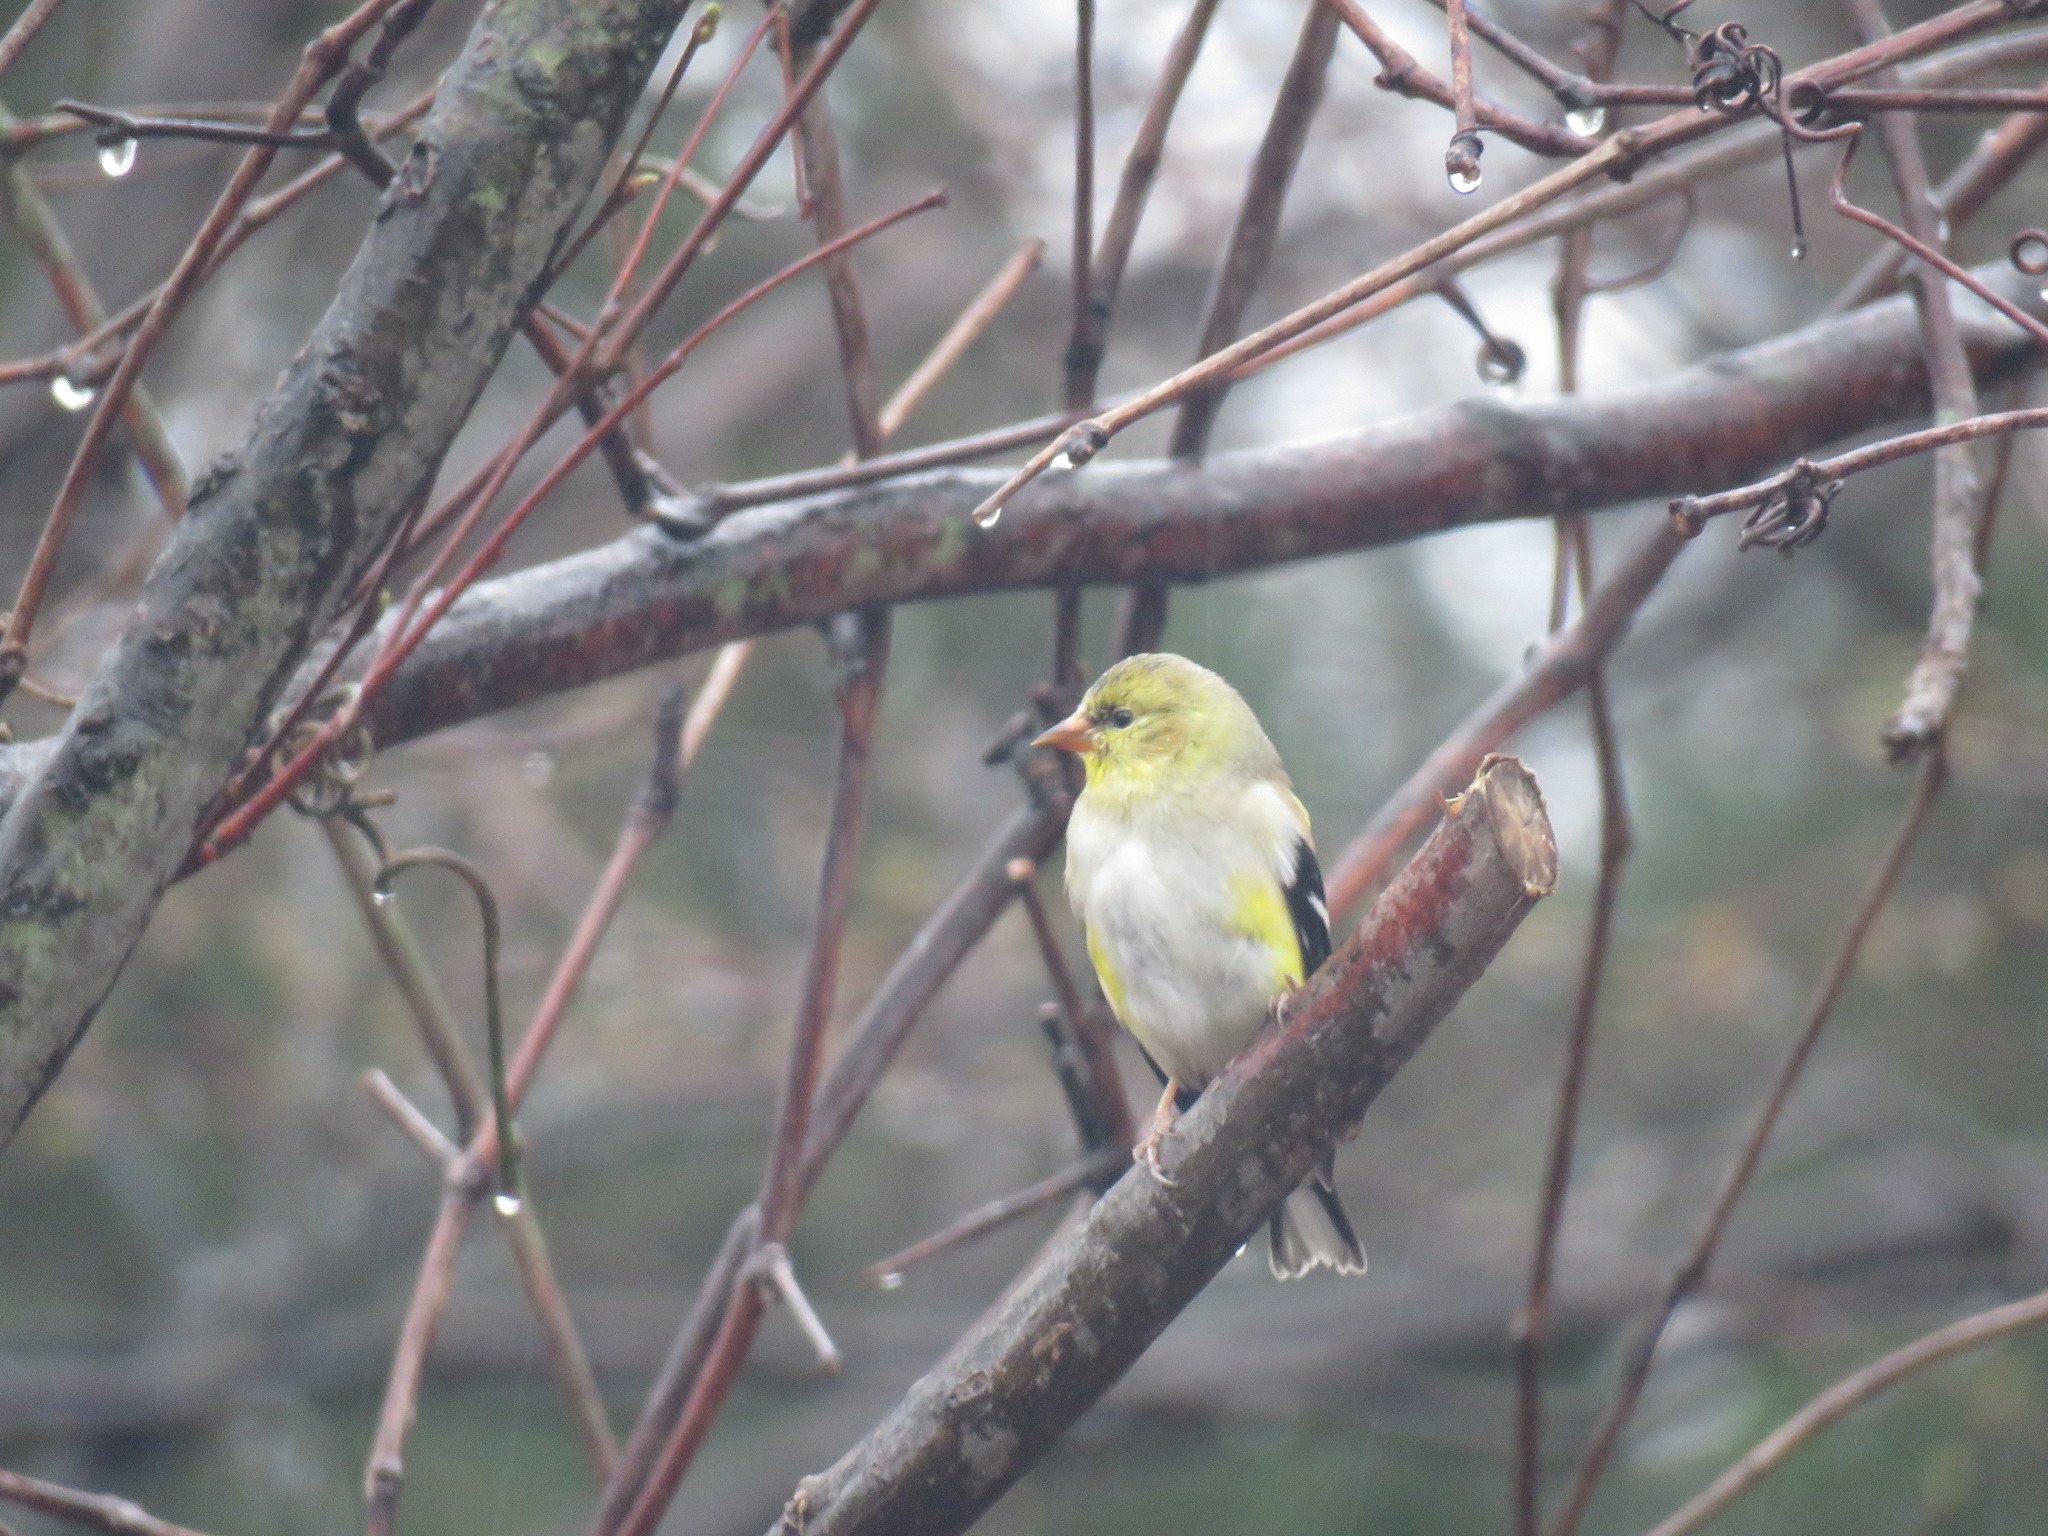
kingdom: Animalia
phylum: Chordata
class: Aves
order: Passeriformes
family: Fringillidae
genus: Spinus
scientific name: Spinus tristis
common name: American goldfinch
